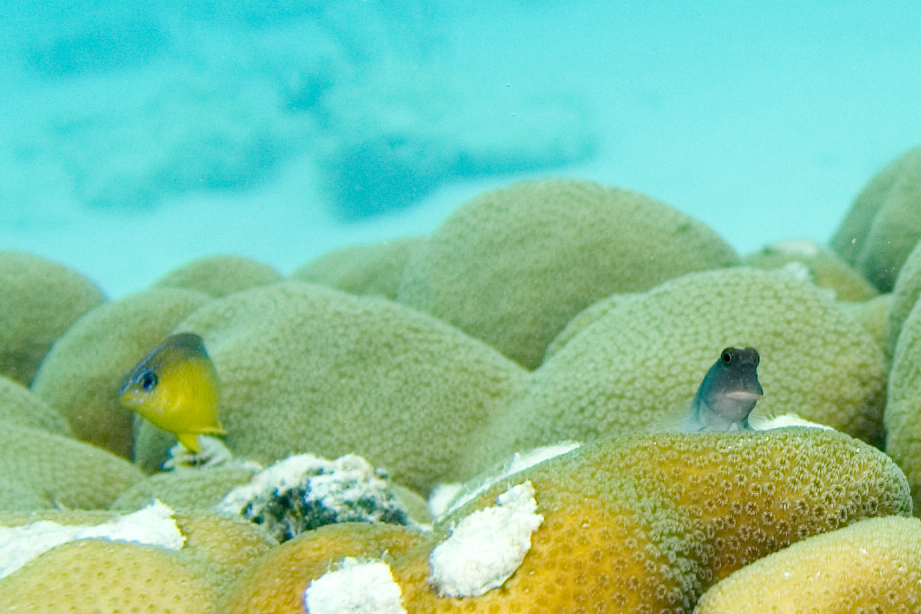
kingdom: Animalia
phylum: Chordata
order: Perciformes
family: Pomacentridae
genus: Stegastes
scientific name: Stegastes diencaeus
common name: Longfin damselfish
